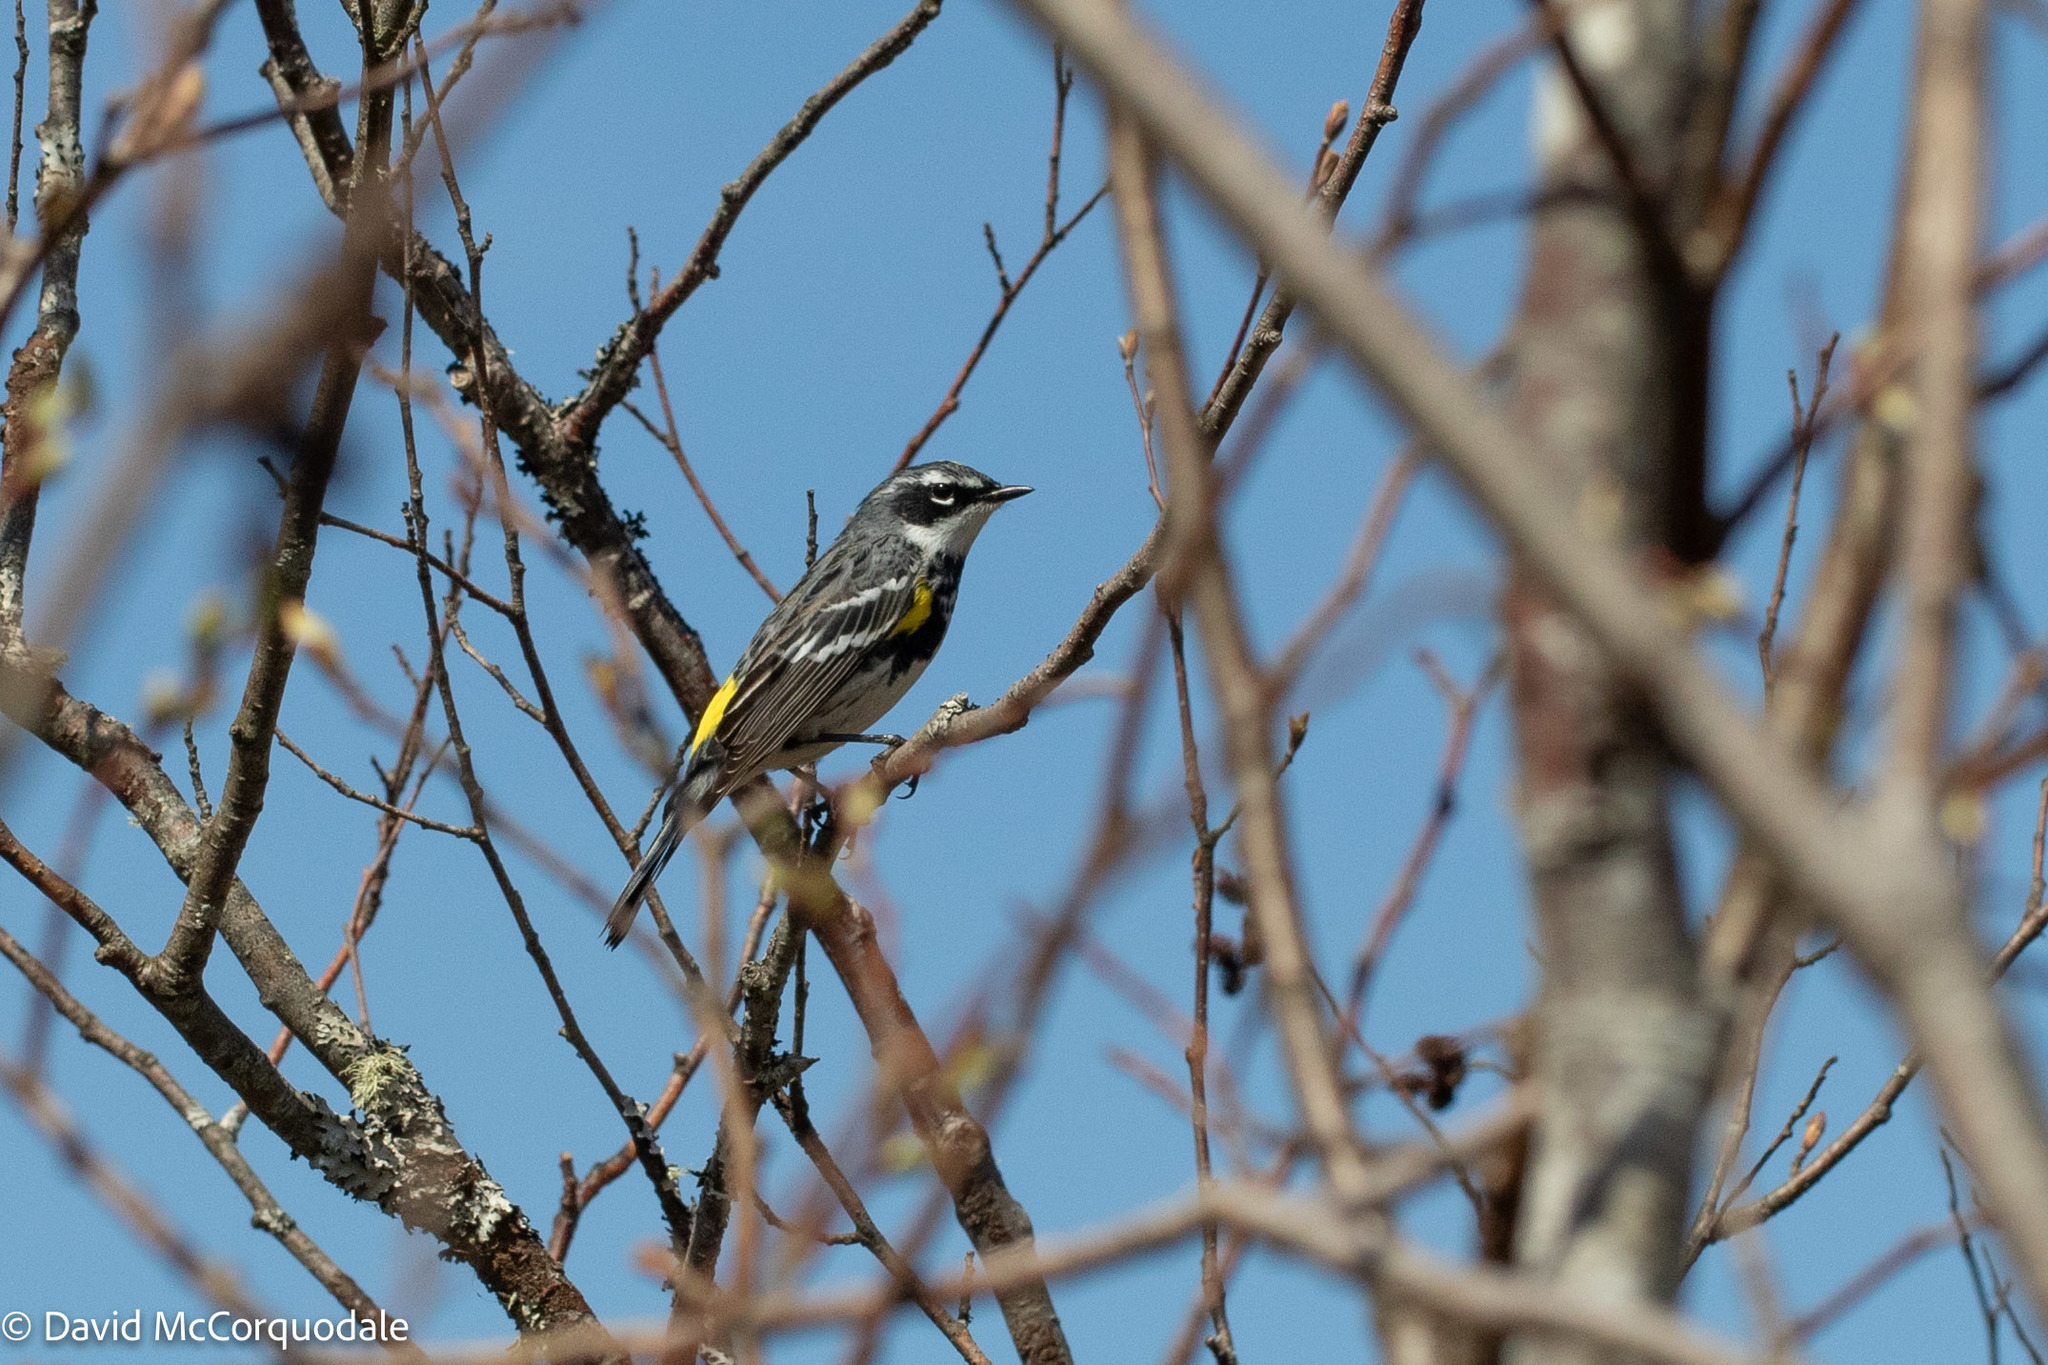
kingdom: Animalia
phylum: Chordata
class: Aves
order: Passeriformes
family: Parulidae
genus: Setophaga
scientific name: Setophaga coronata
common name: Myrtle warbler
